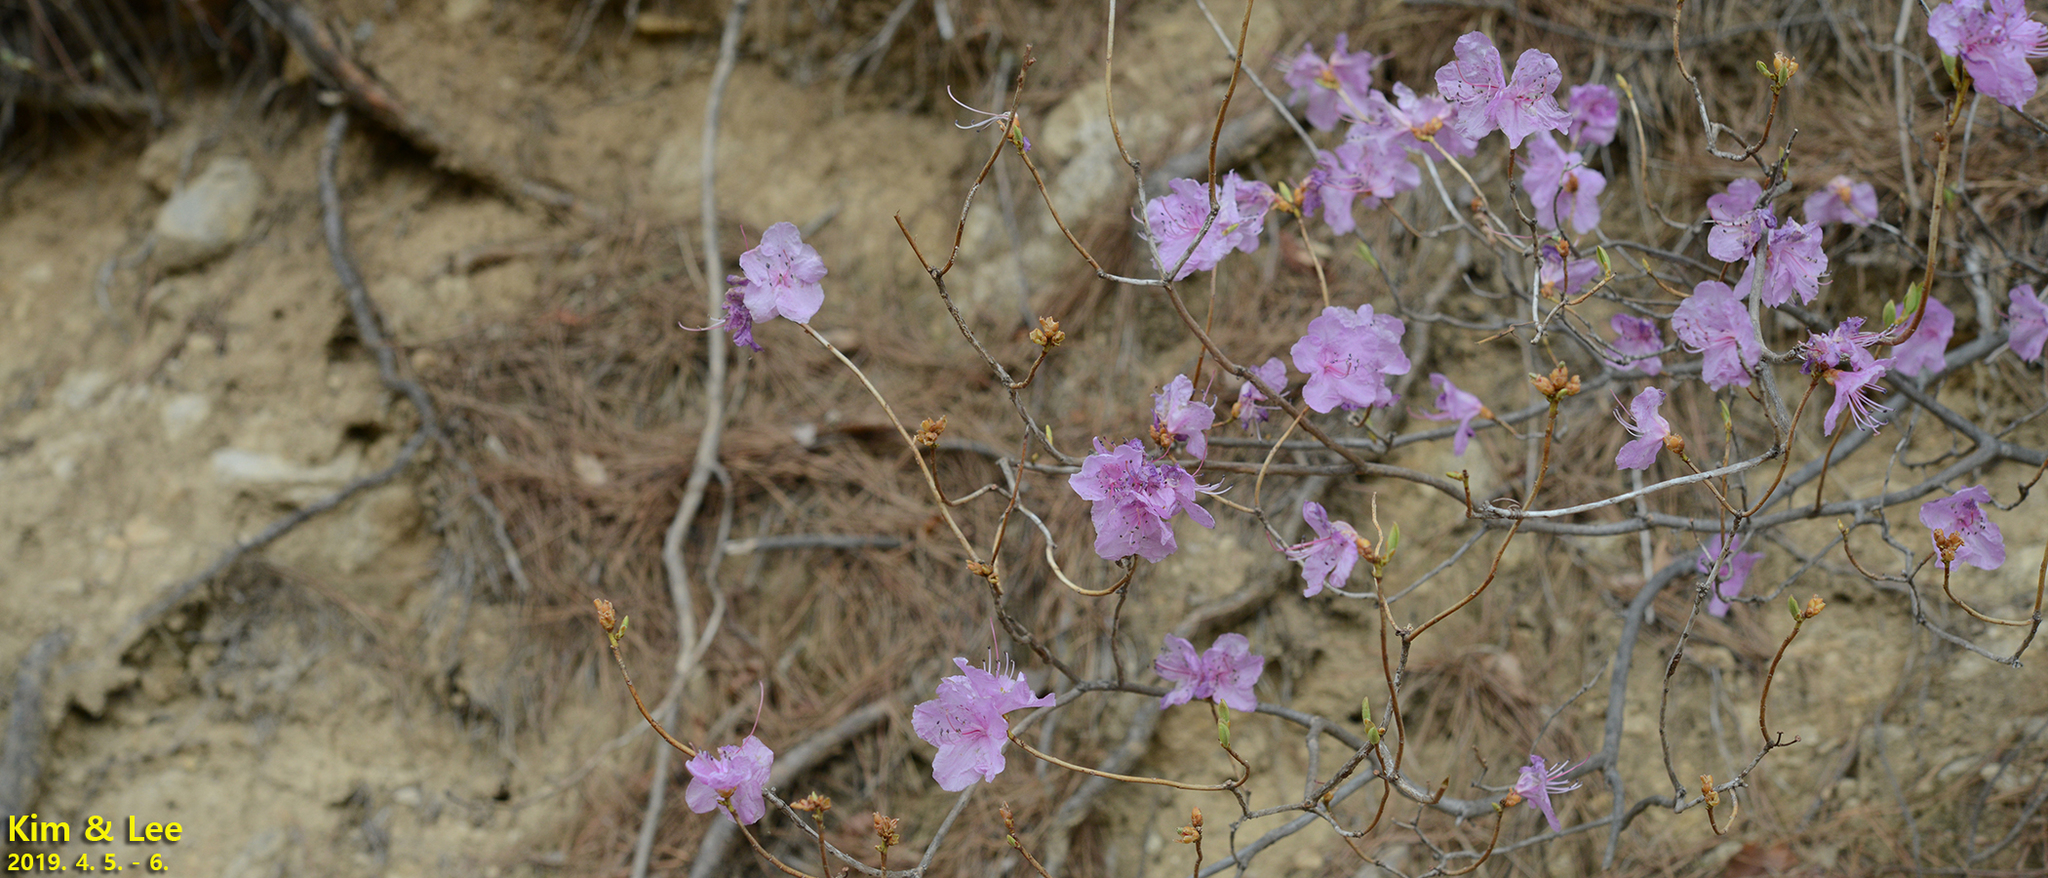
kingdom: Plantae
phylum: Tracheophyta
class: Magnoliopsida
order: Ericales
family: Ericaceae
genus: Rhododendron
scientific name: Rhododendron mucronulatum
